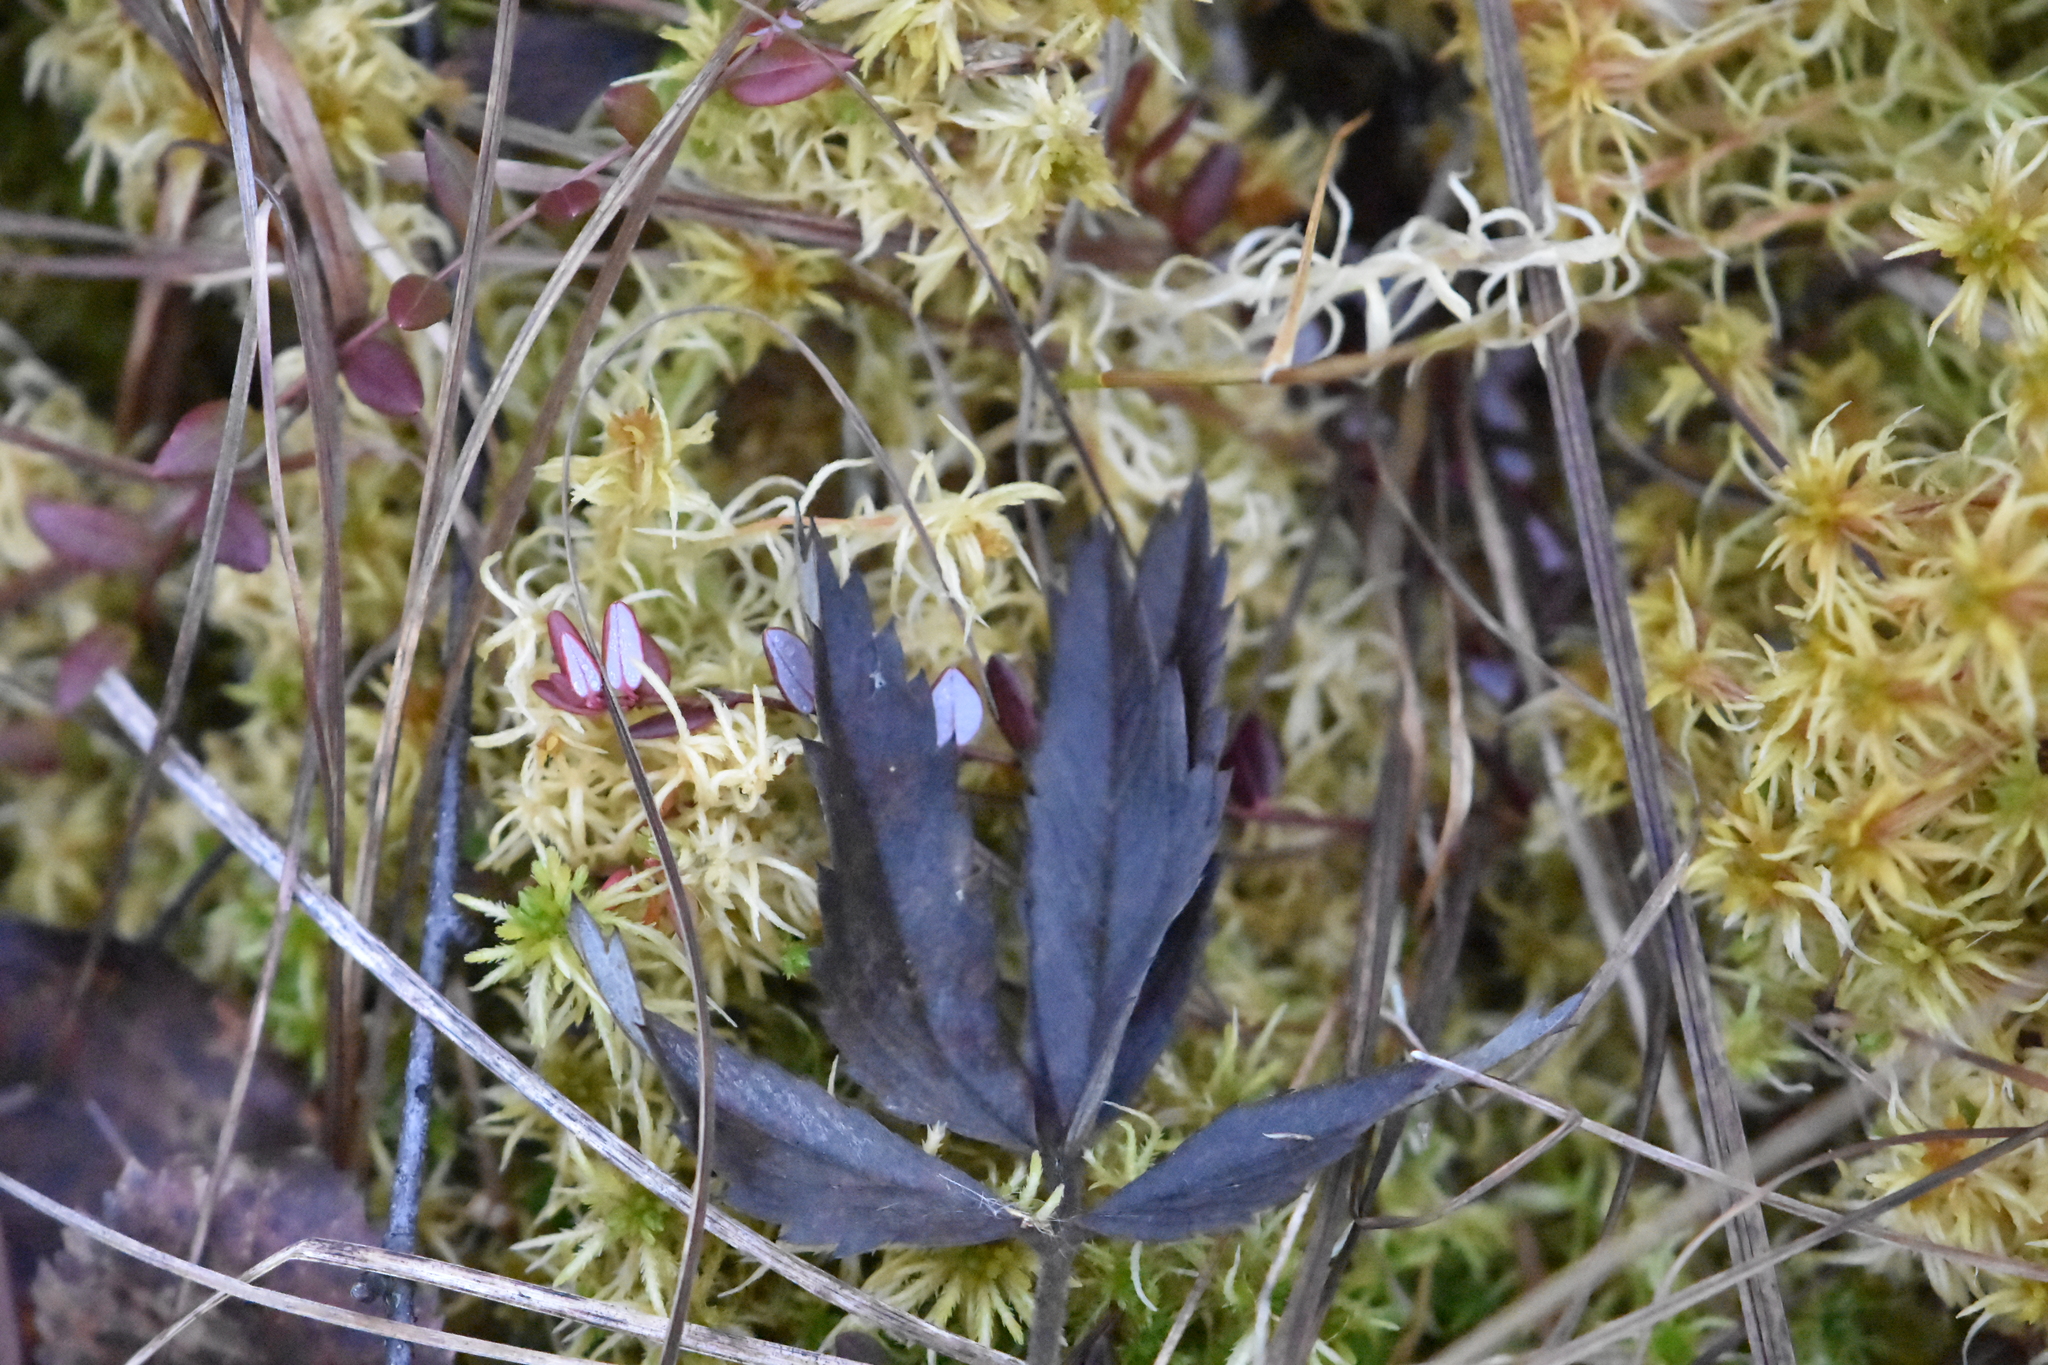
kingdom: Plantae
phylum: Tracheophyta
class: Magnoliopsida
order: Rosales
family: Rosaceae
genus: Comarum
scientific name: Comarum palustre
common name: Marsh cinquefoil
